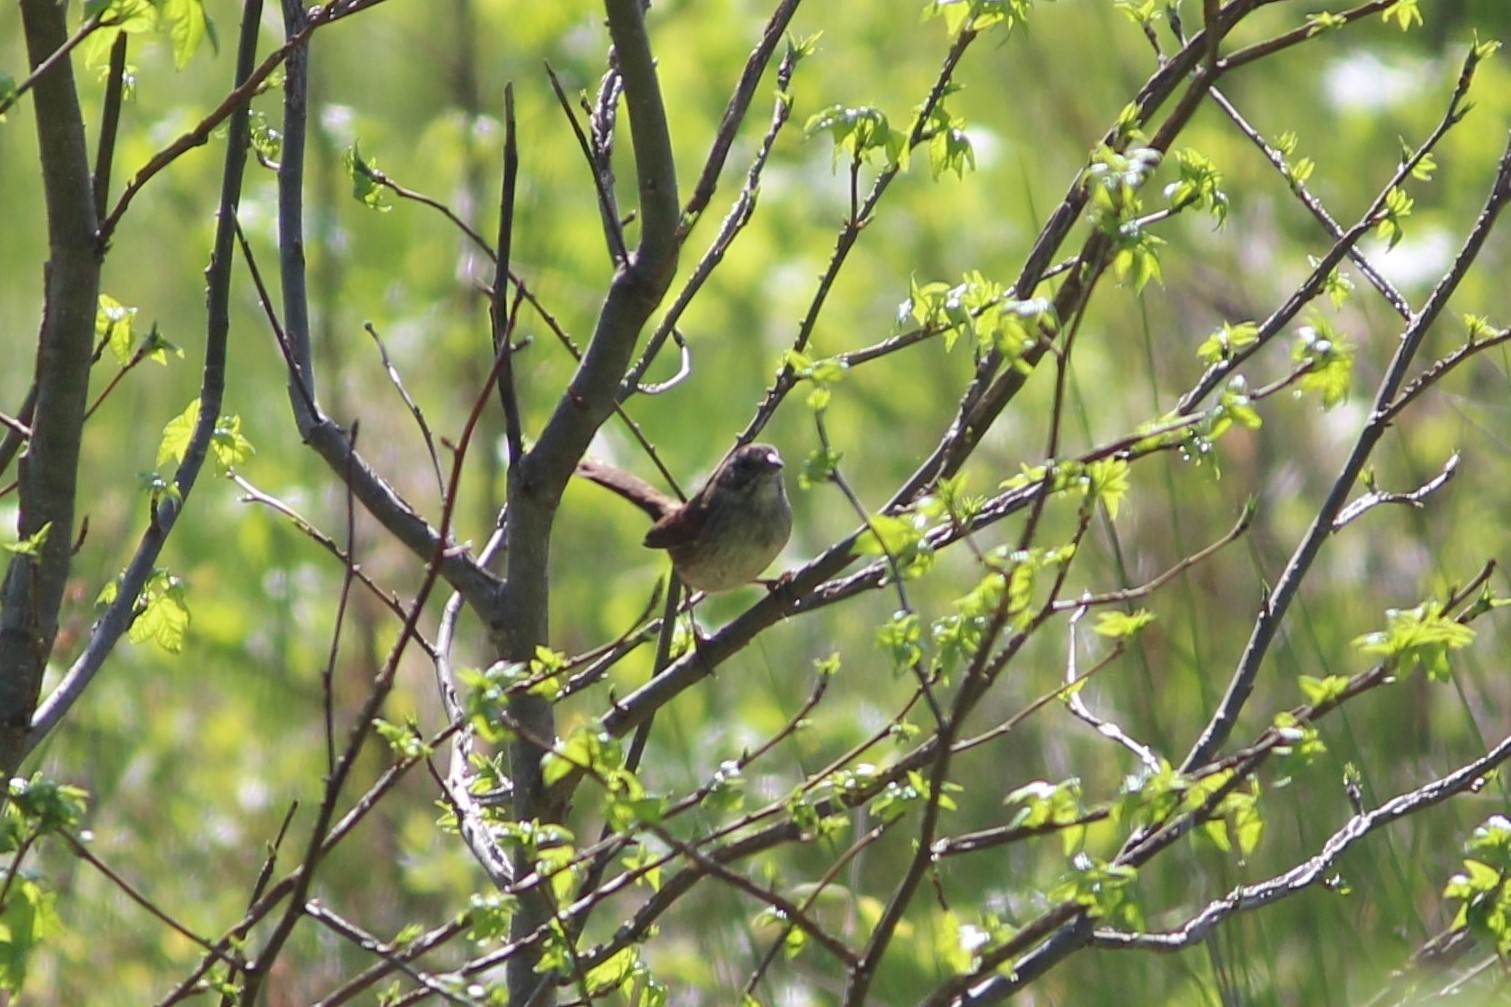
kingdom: Animalia
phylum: Chordata
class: Aves
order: Passeriformes
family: Passerellidae
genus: Melospiza
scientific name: Melospiza georgiana
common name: Swamp sparrow
